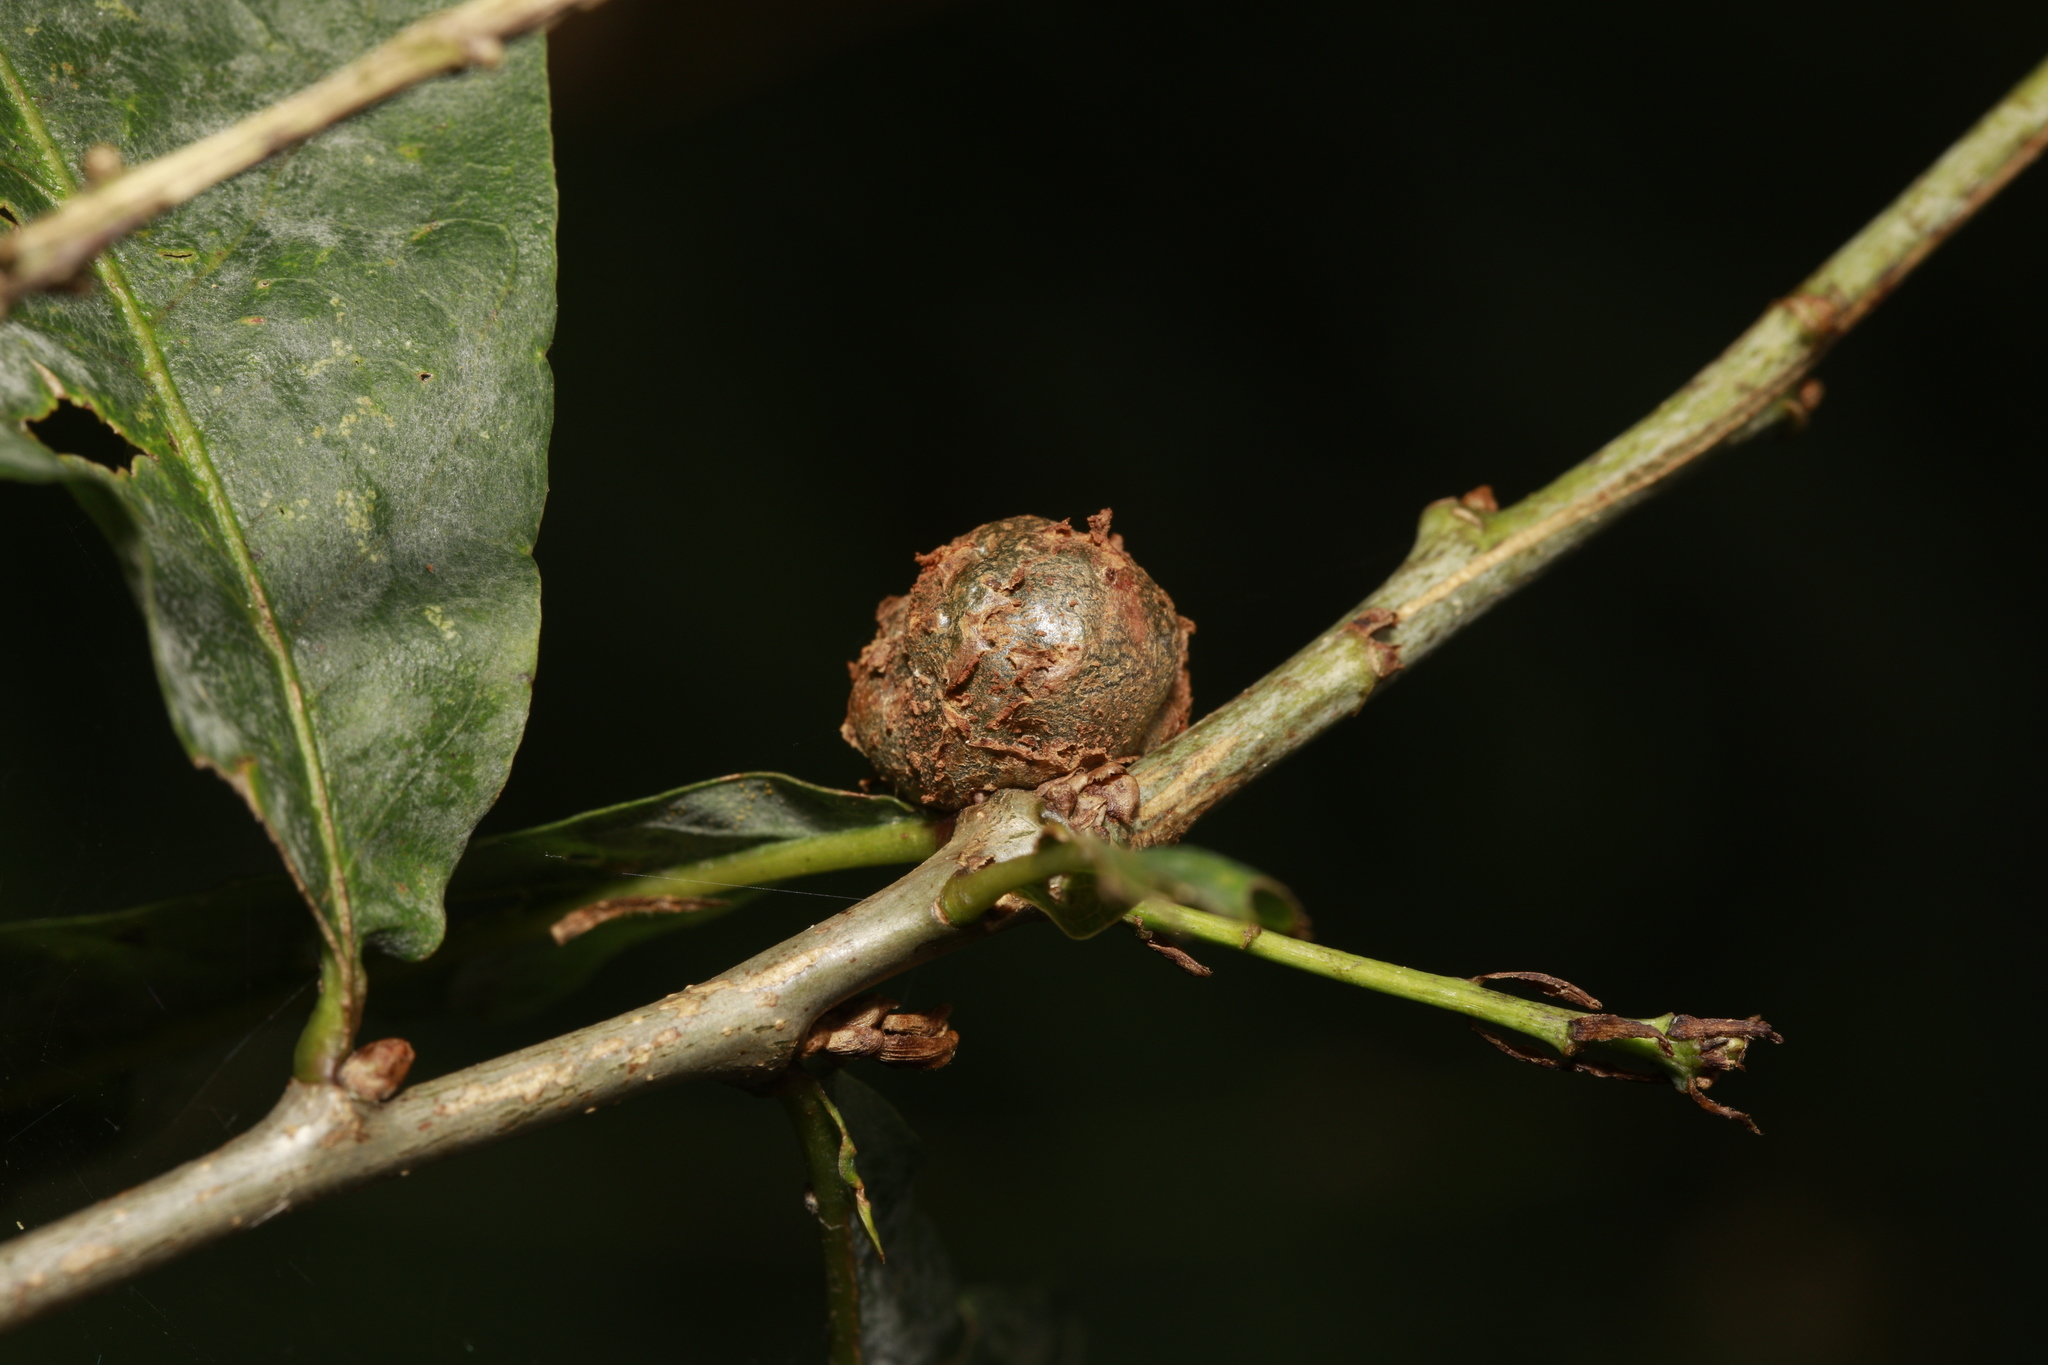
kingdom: Animalia
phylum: Arthropoda
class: Insecta
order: Hymenoptera
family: Cynipidae
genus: Andricus
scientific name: Andricus lignicolus
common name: Cola-nut gall
